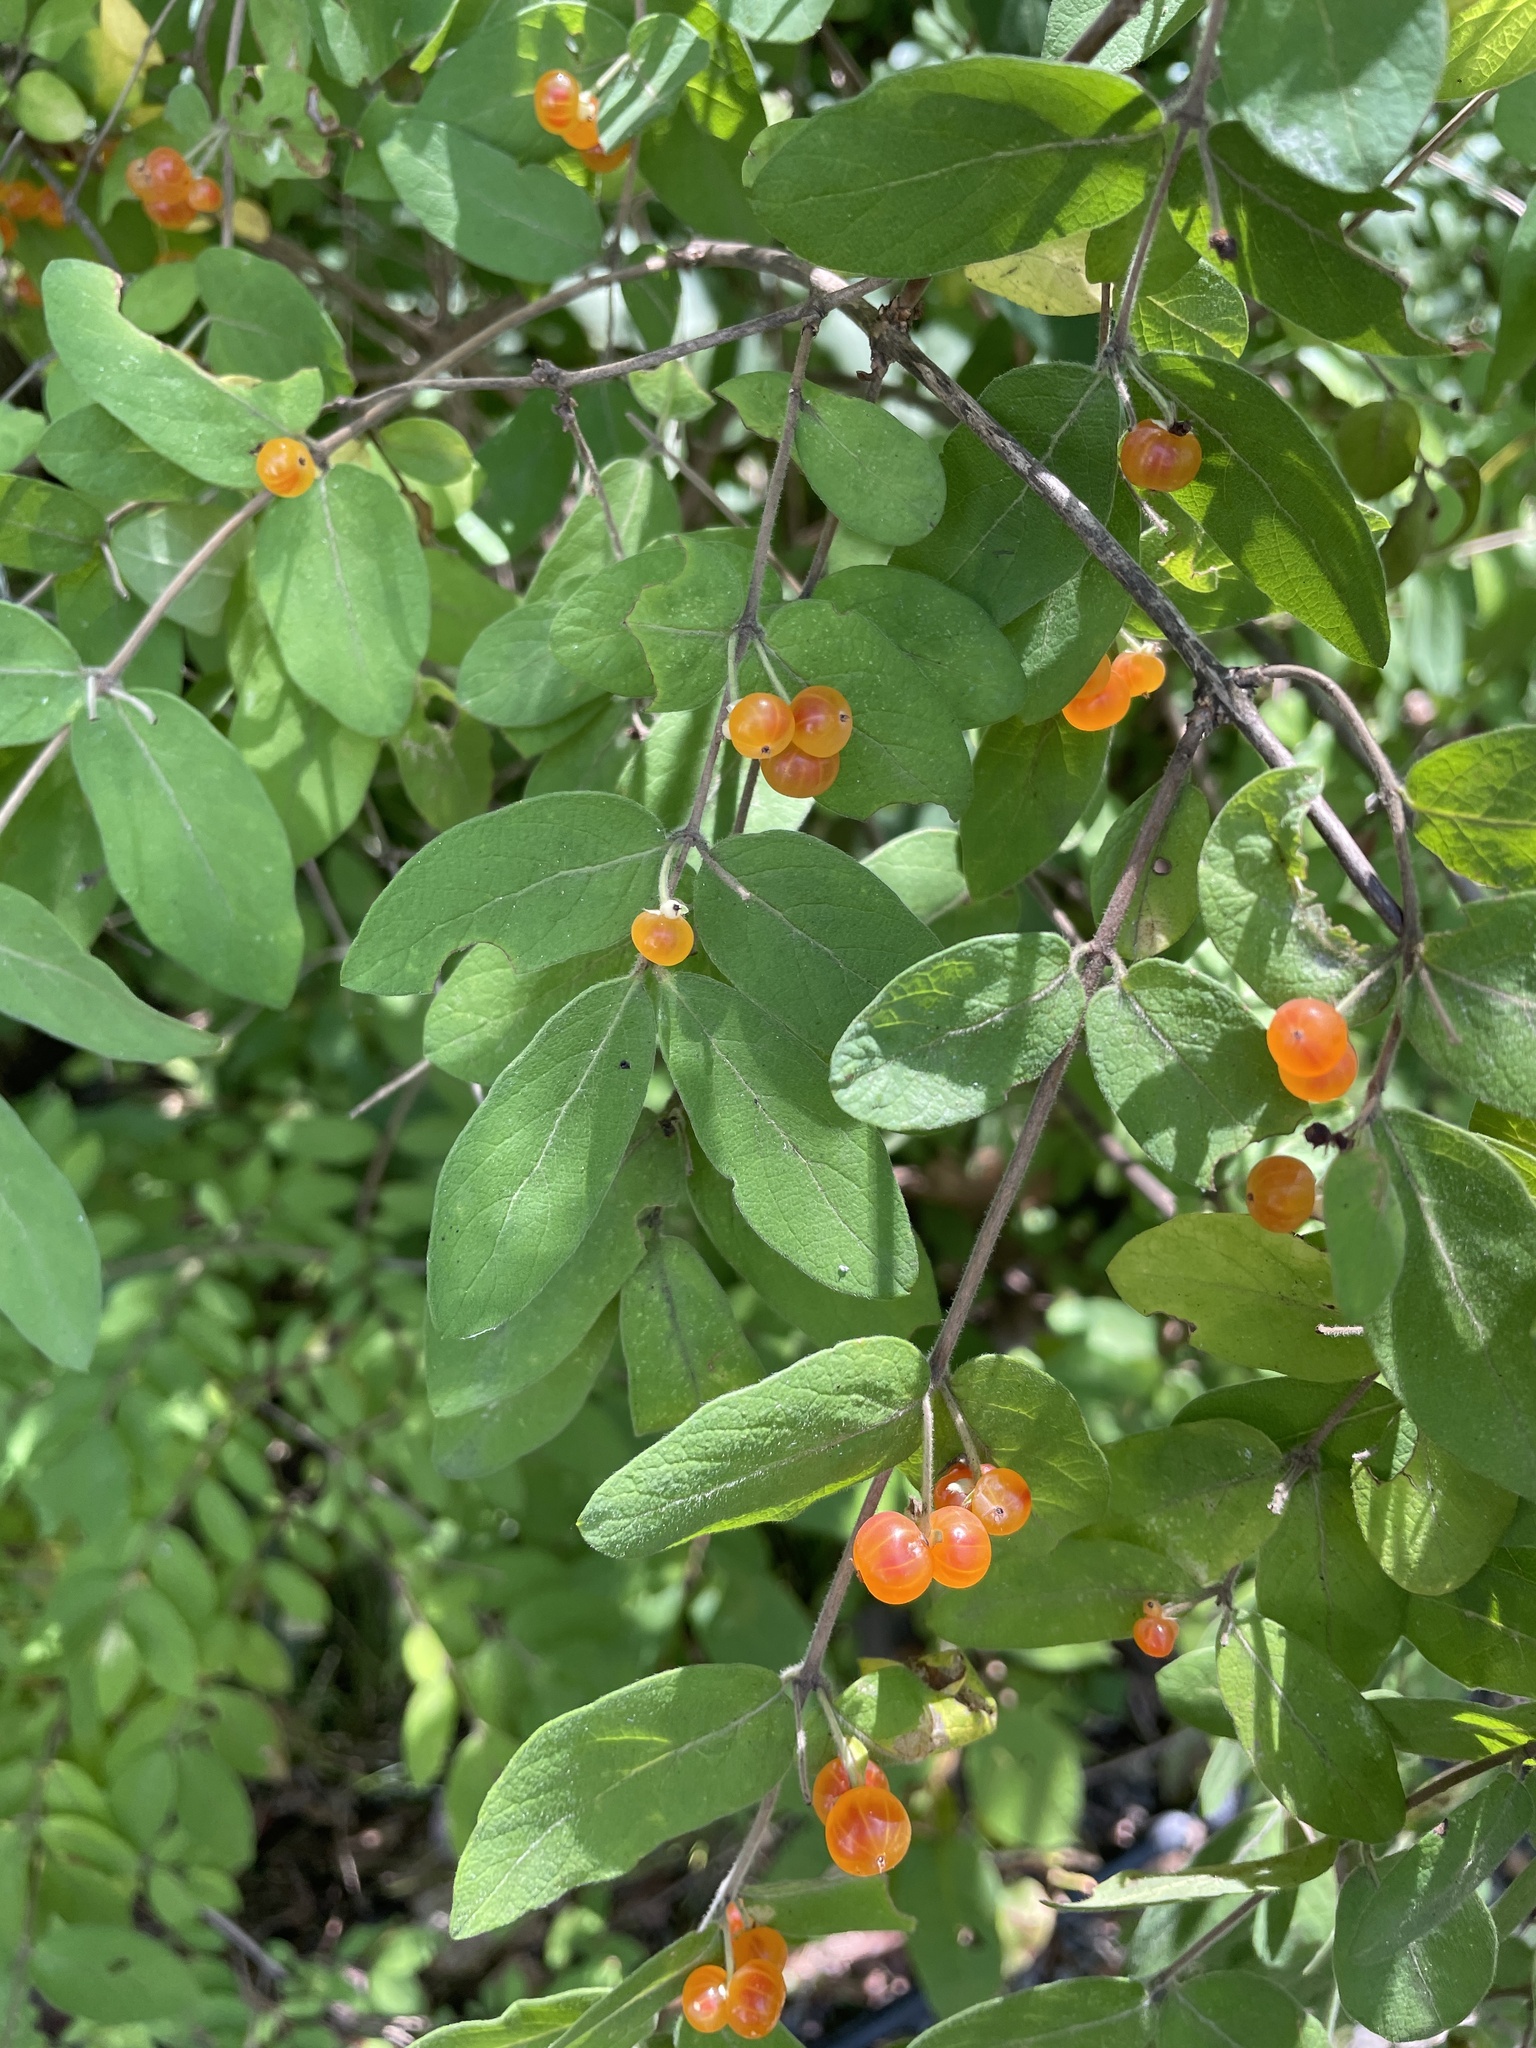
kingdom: Plantae
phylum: Tracheophyta
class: Magnoliopsida
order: Dipsacales
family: Caprifoliaceae
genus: Lonicera
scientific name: Lonicera
